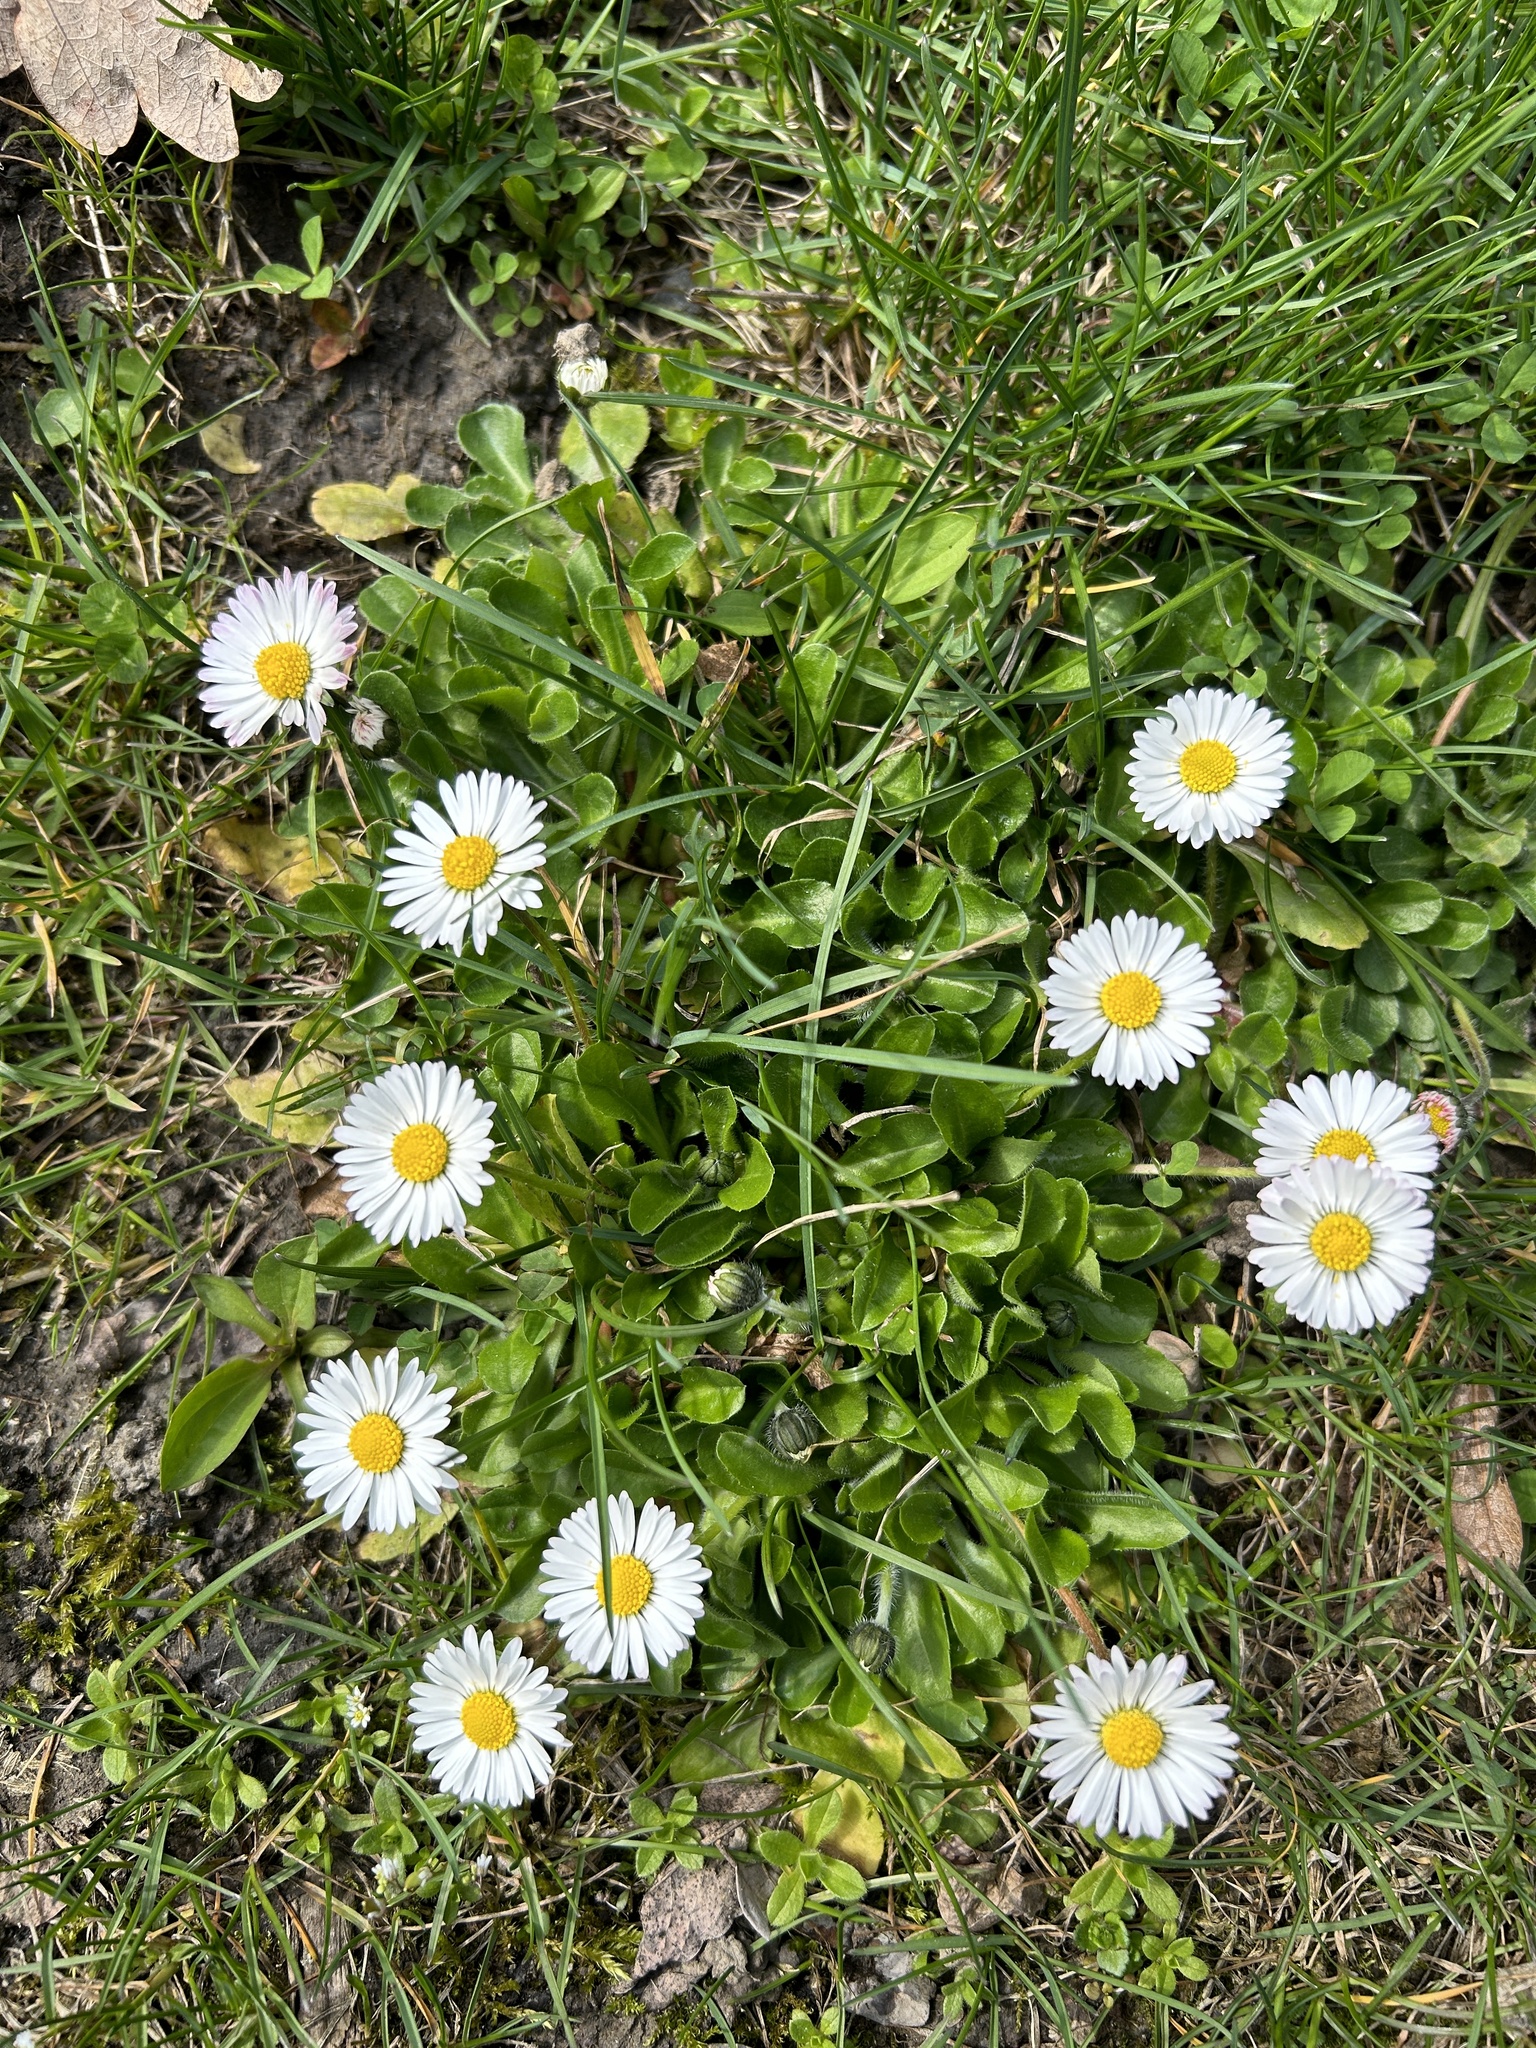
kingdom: Plantae
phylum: Tracheophyta
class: Magnoliopsida
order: Asterales
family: Asteraceae
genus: Bellis
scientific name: Bellis perennis
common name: Lawndaisy
